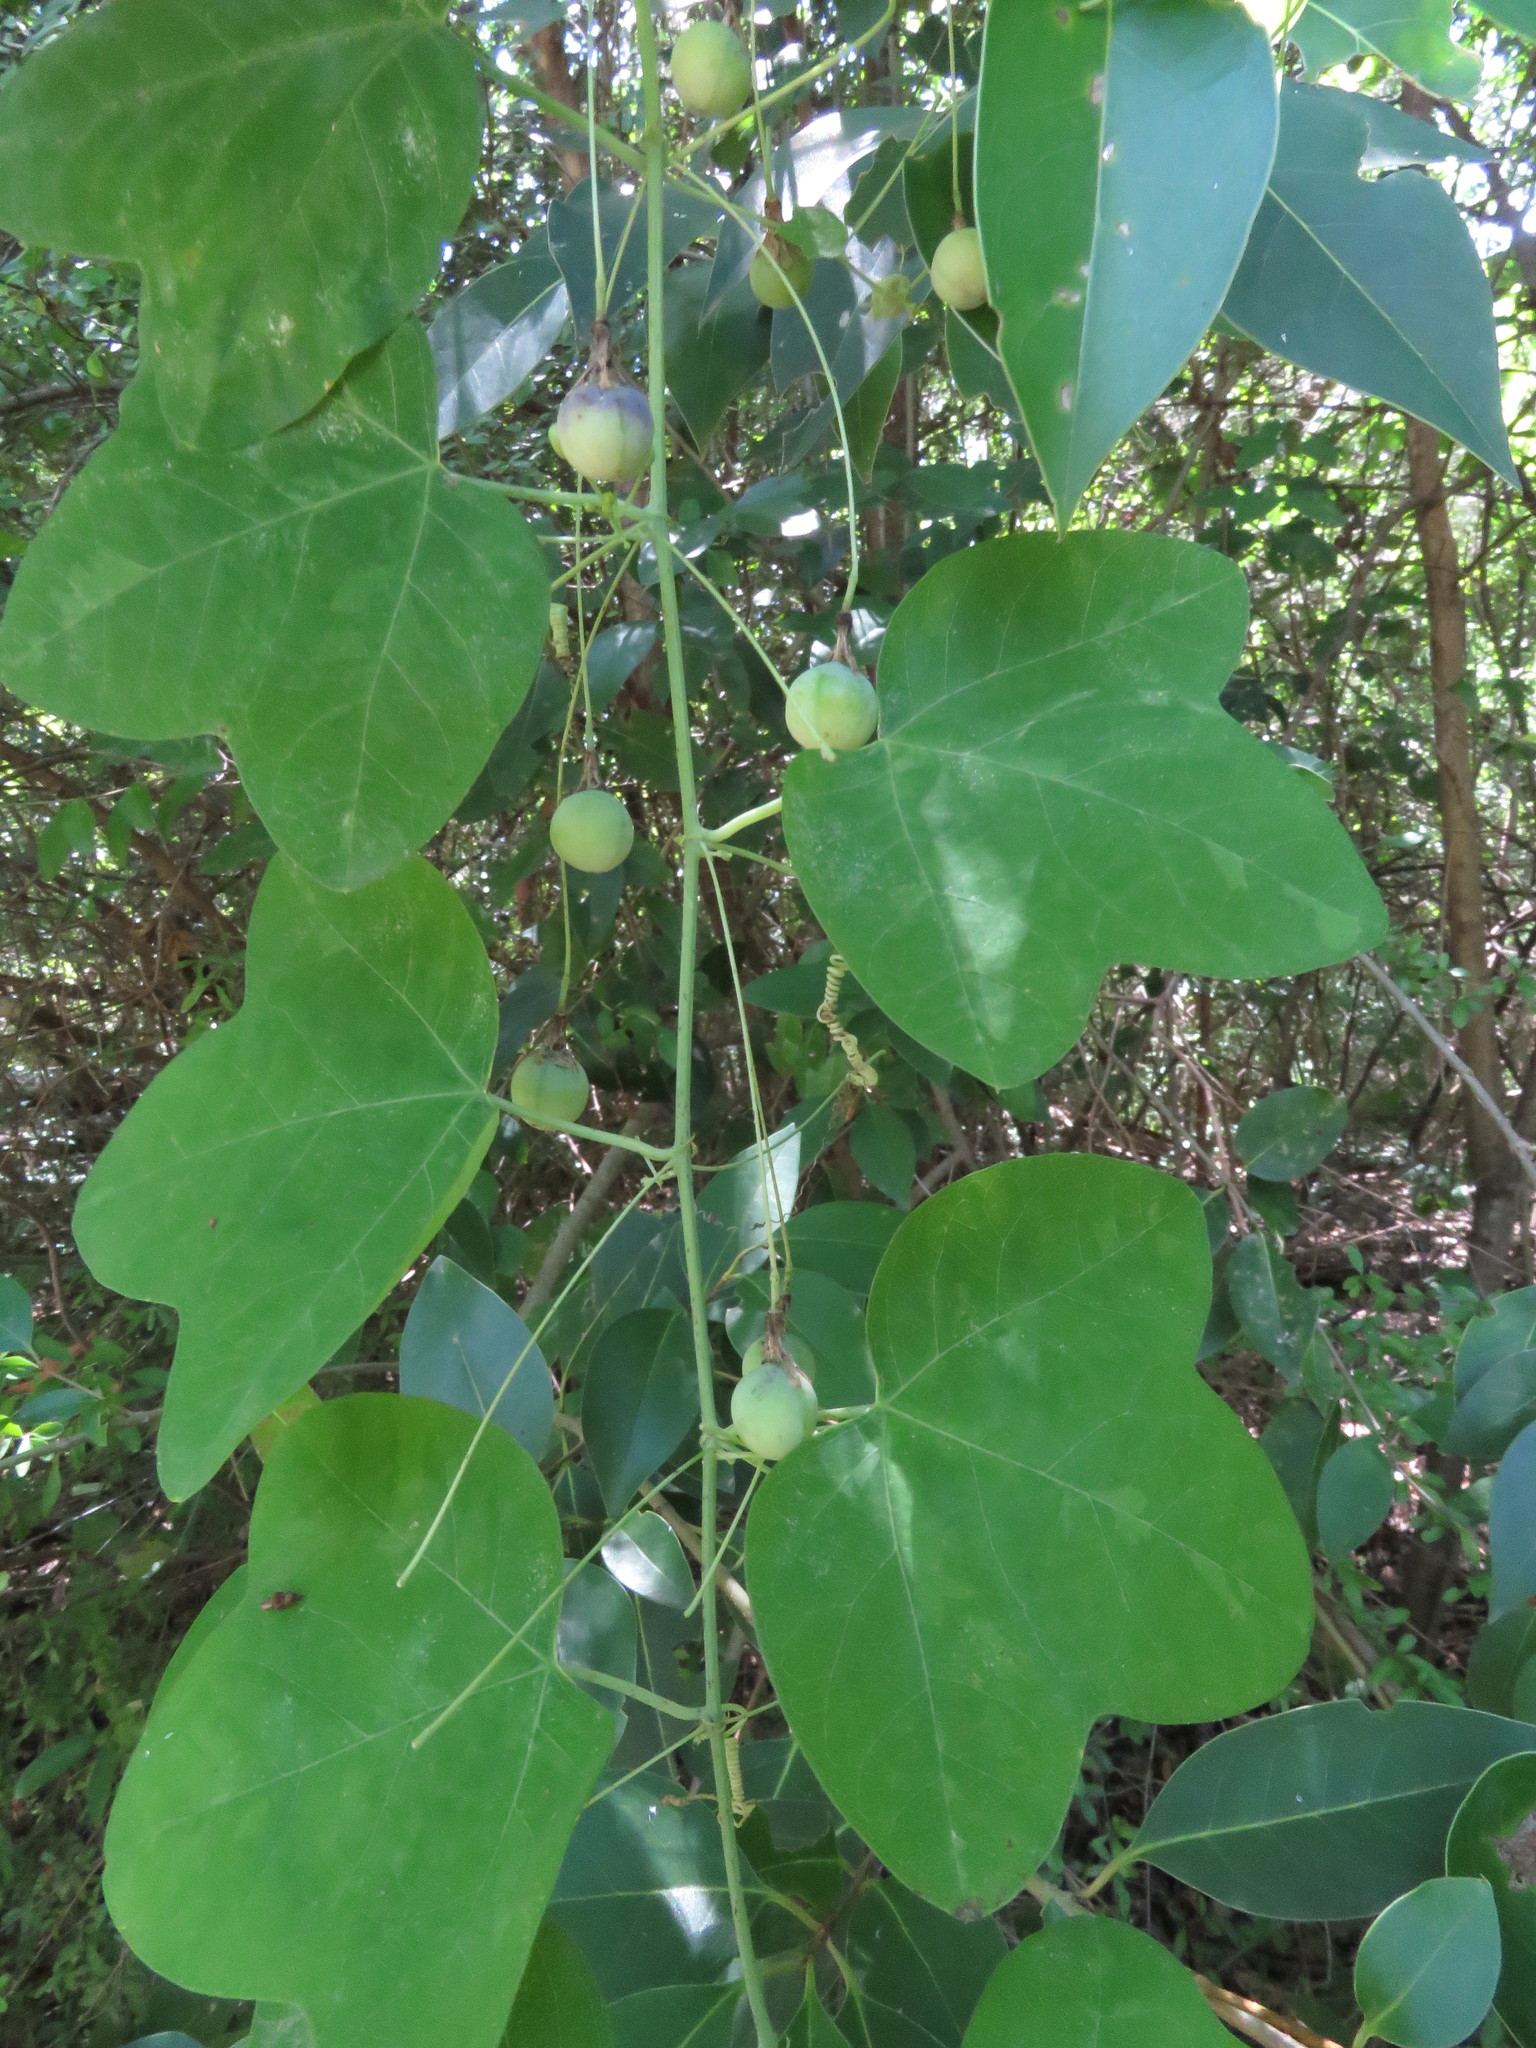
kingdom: Plantae
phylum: Tracheophyta
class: Magnoliopsida
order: Malpighiales
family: Passifloraceae
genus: Passiflora
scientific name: Passiflora lutea
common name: Yellow passionflower
